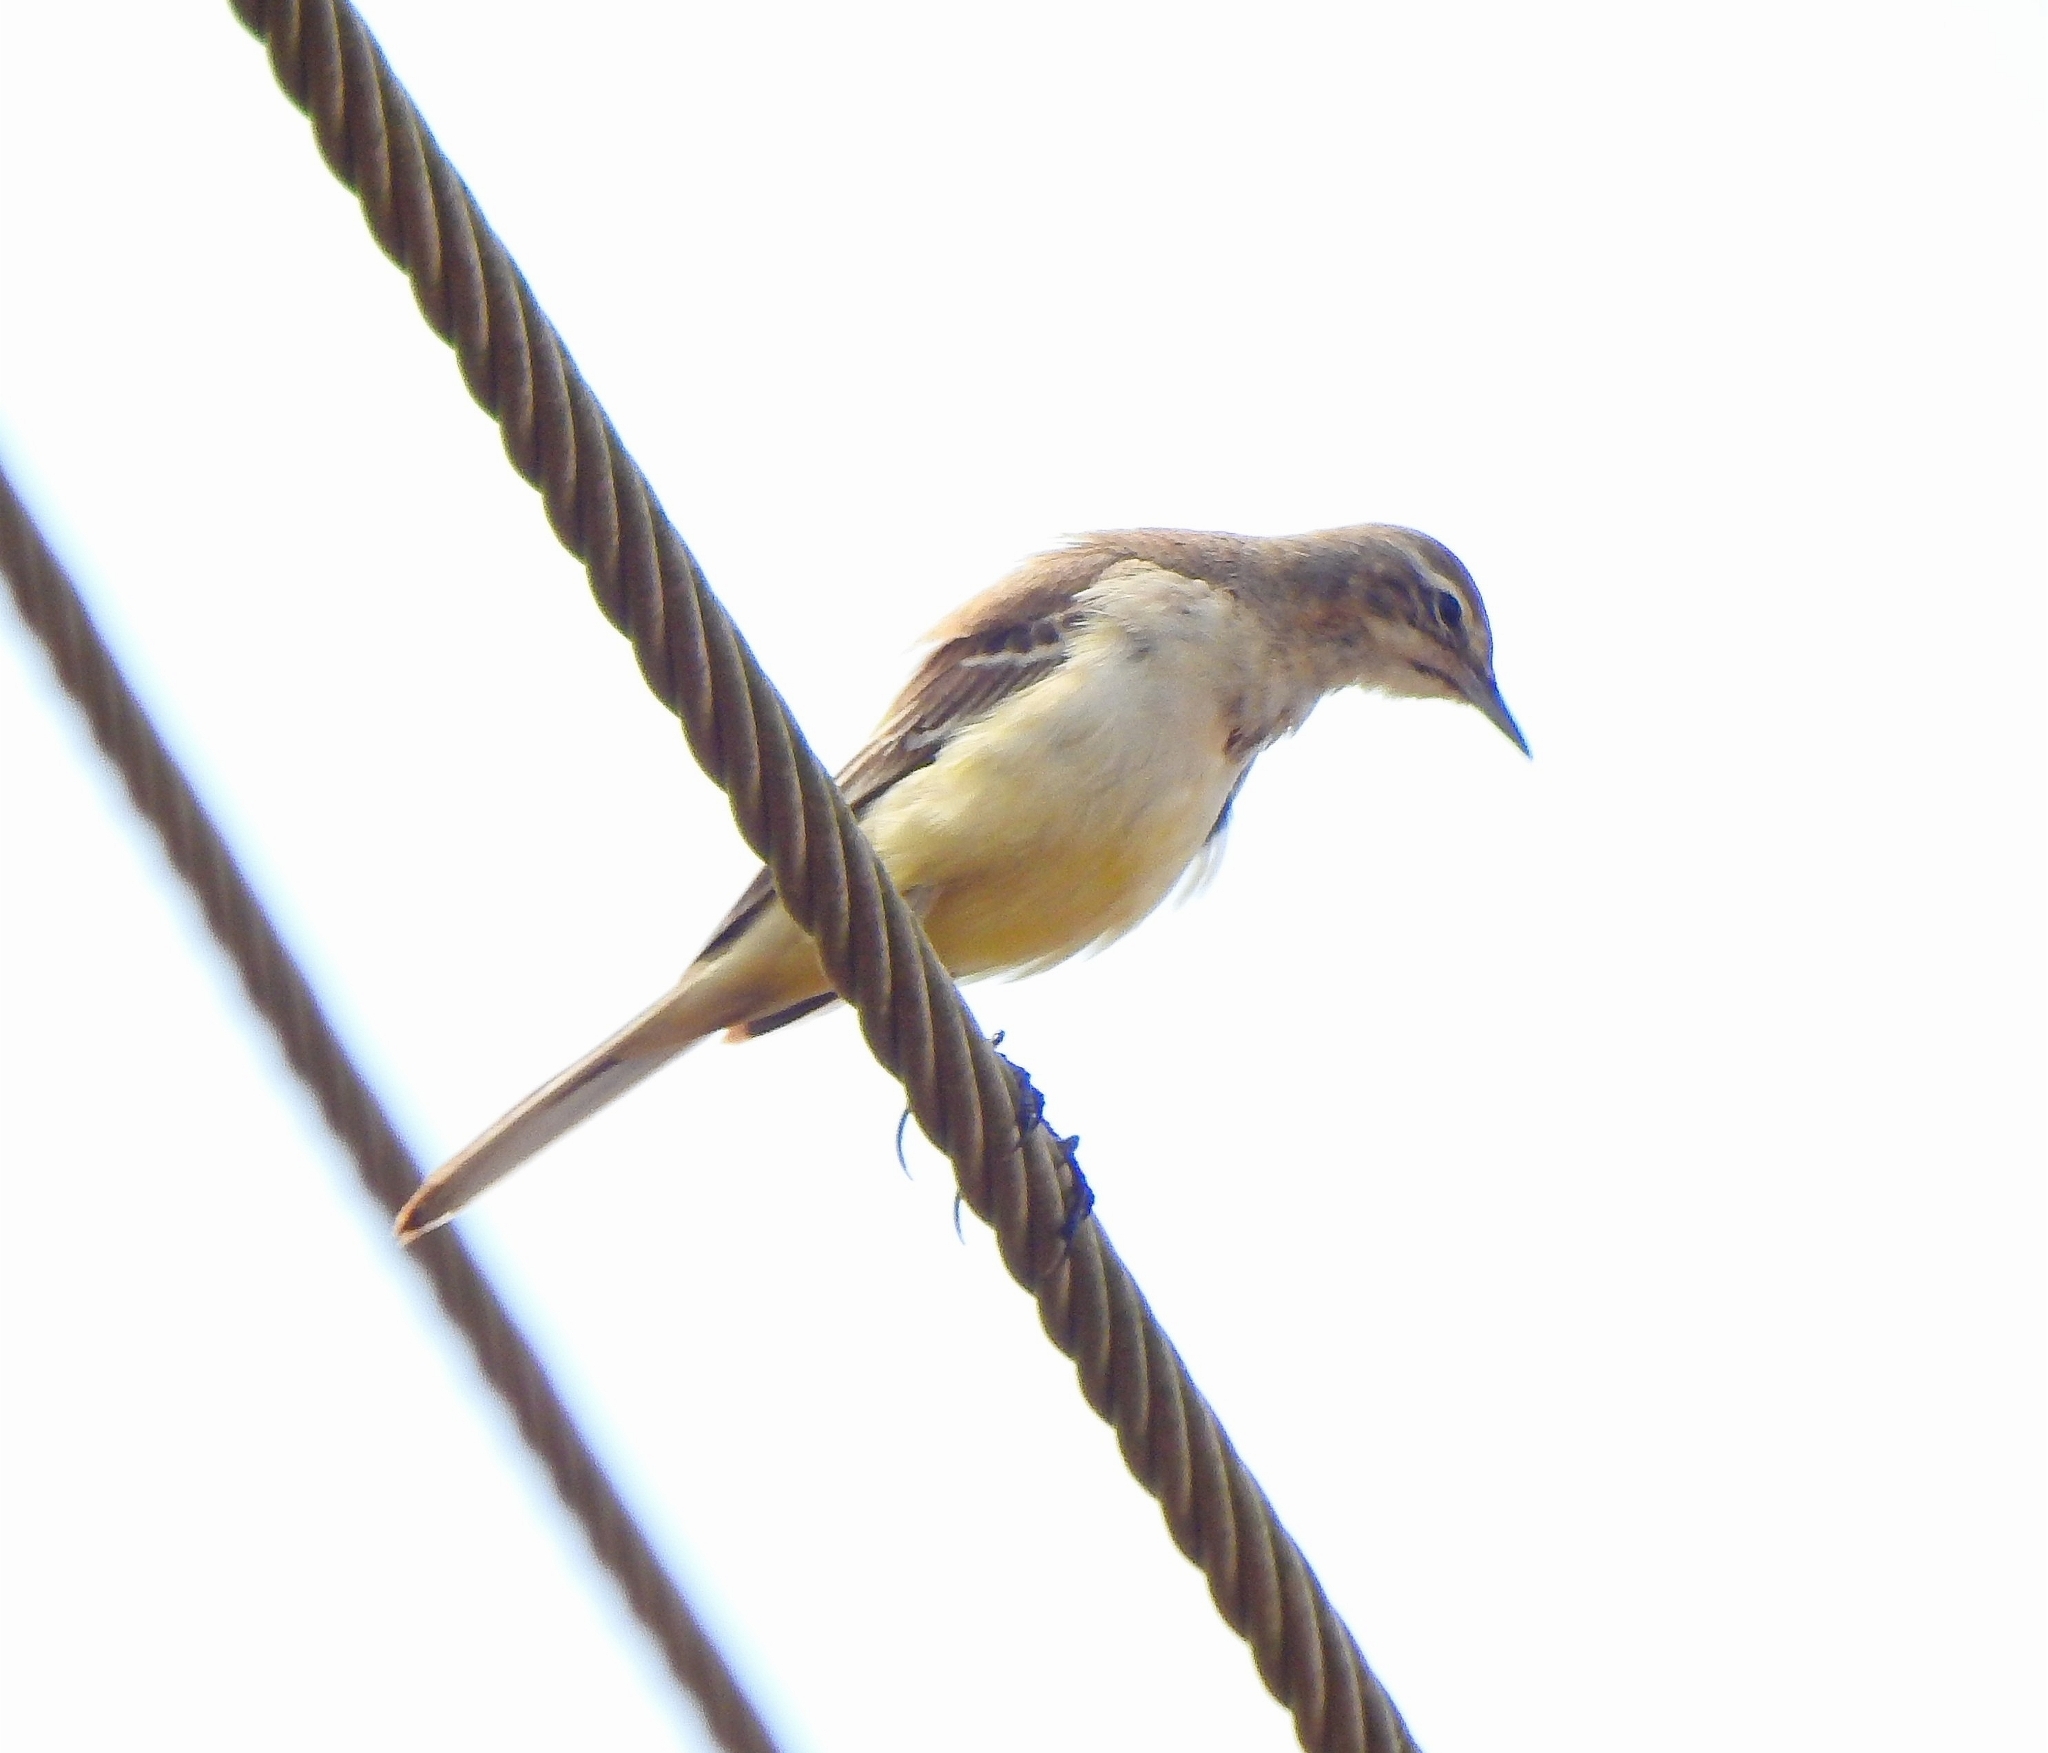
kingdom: Animalia
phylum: Chordata
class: Aves
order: Passeriformes
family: Motacillidae
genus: Motacilla
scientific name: Motacilla flava
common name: Western yellow wagtail
